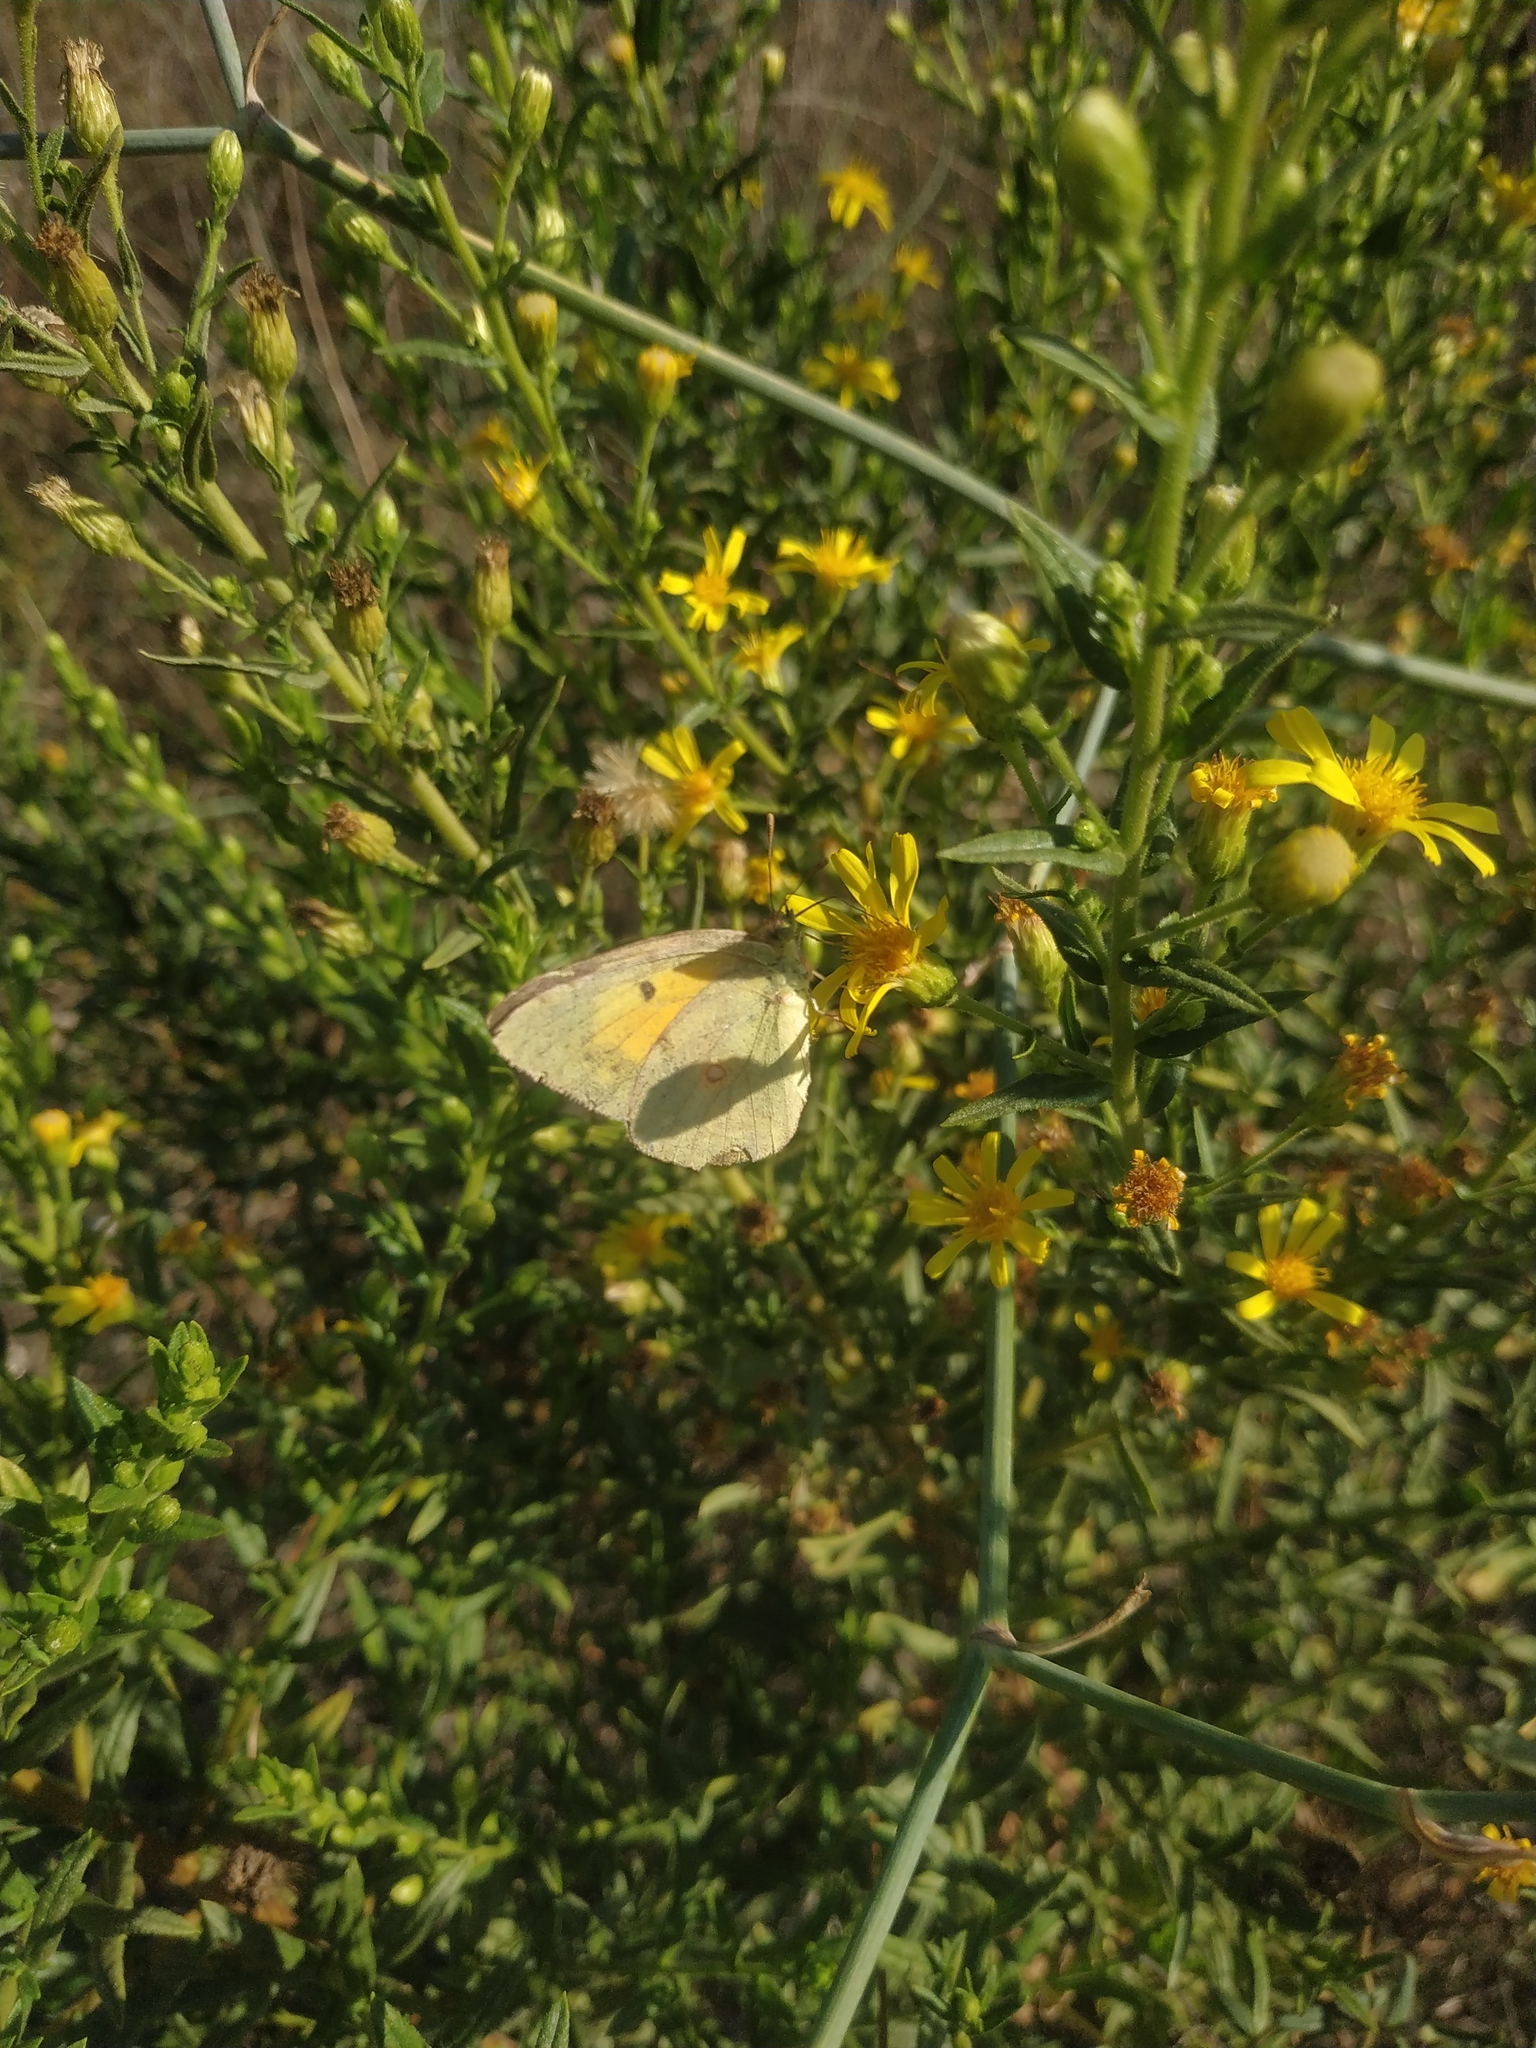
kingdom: Animalia
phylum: Arthropoda
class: Insecta
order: Lepidoptera
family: Pieridae
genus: Colias
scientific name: Colias croceus
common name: Clouded yellow
